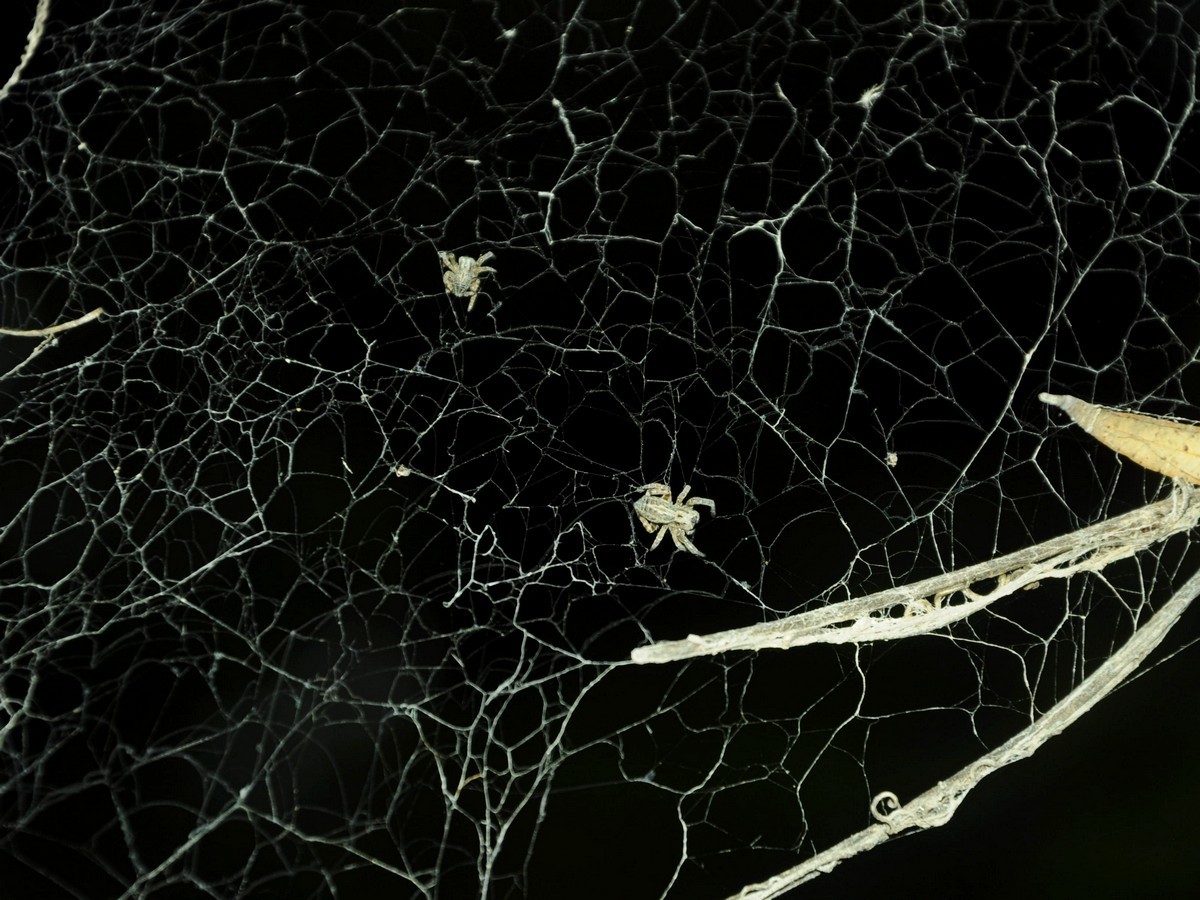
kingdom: Animalia
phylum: Arthropoda
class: Arachnida
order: Araneae
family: Eresidae
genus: Stegodyphus
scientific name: Stegodyphus sarasinorum
